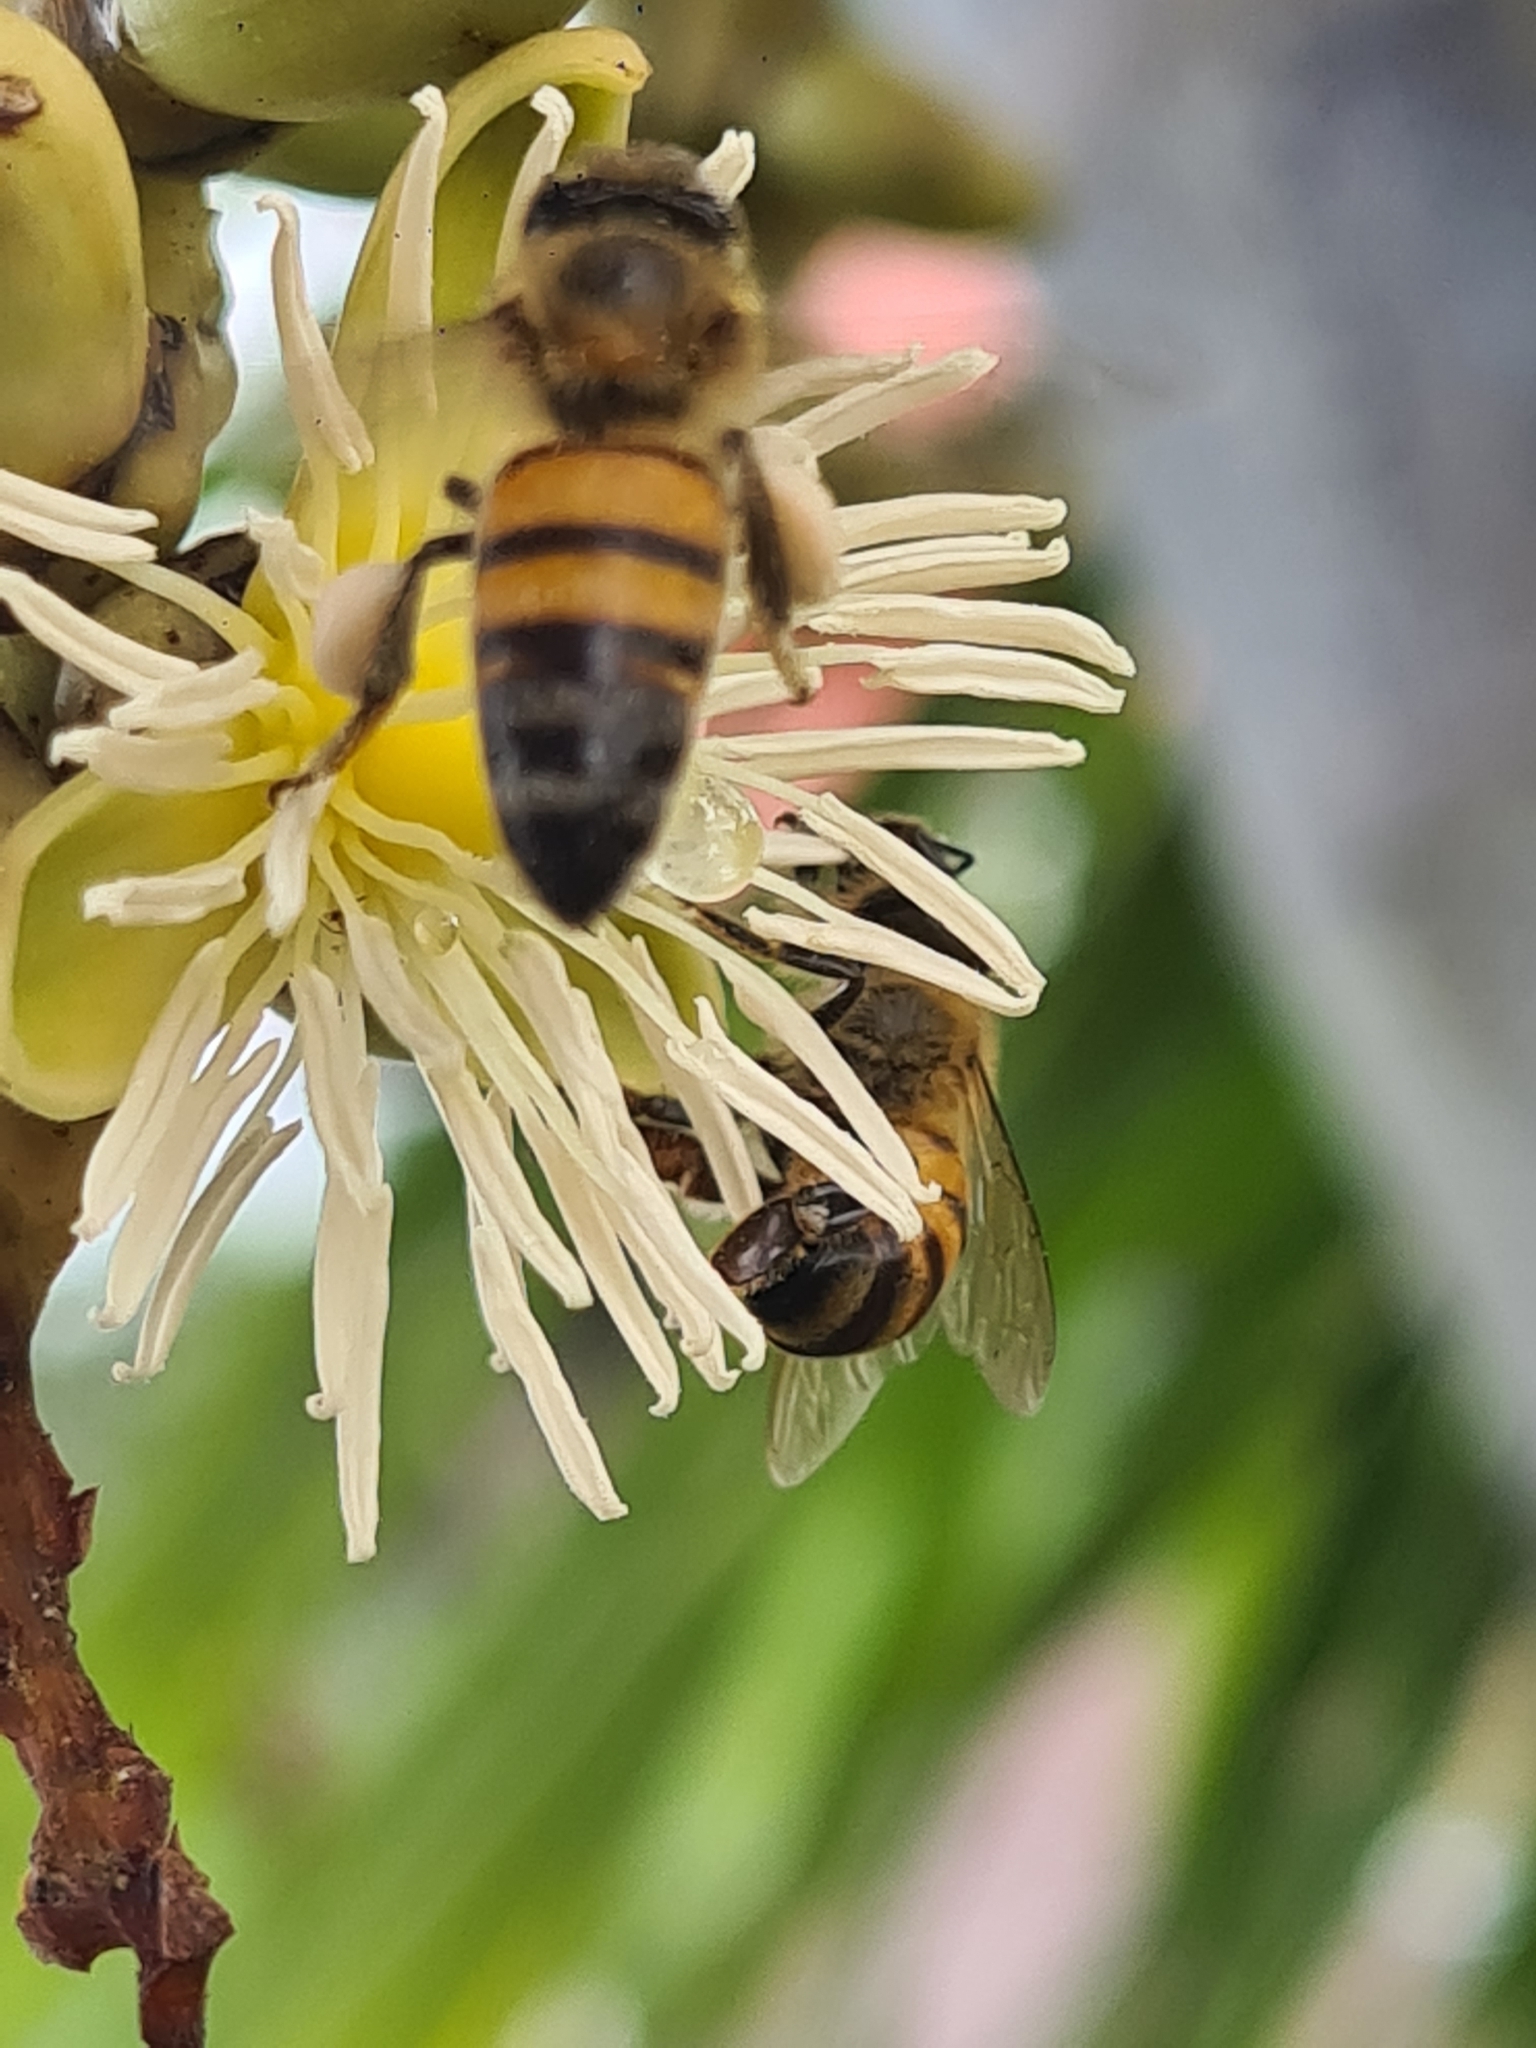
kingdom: Animalia
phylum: Arthropoda
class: Insecta
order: Hymenoptera
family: Apidae
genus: Apis
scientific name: Apis mellifera
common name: Honey bee
